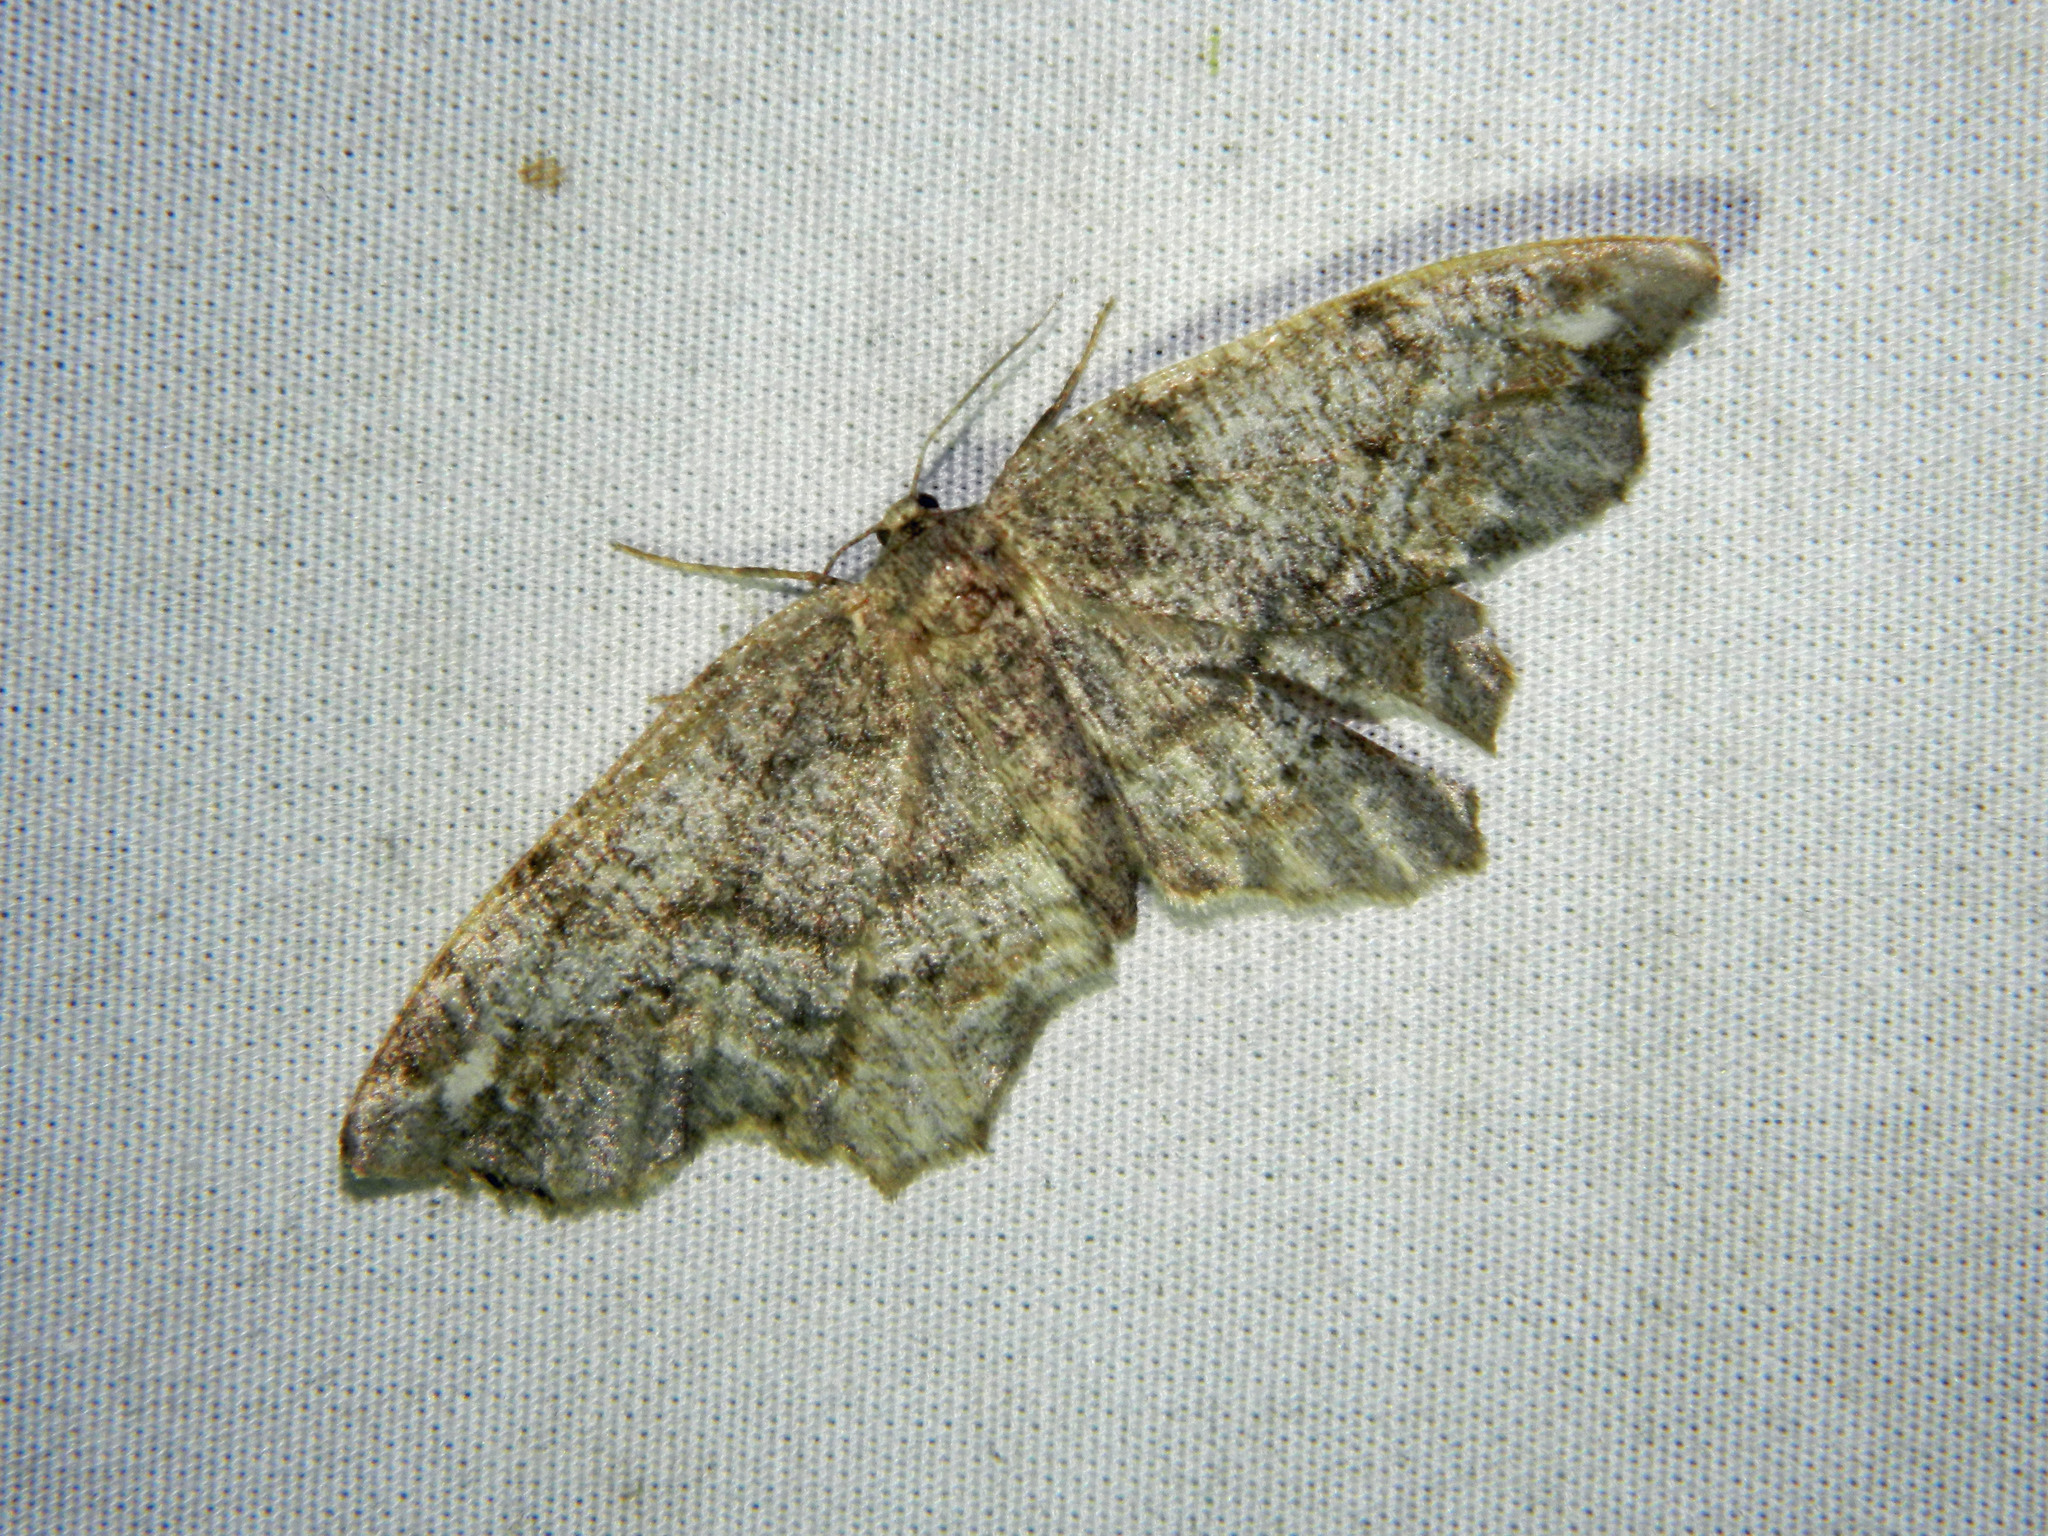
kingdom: Animalia
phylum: Arthropoda
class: Insecta
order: Lepidoptera
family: Geometridae
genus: Hypagyrtis
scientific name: Hypagyrtis unipunctata
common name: One-spotted variant
